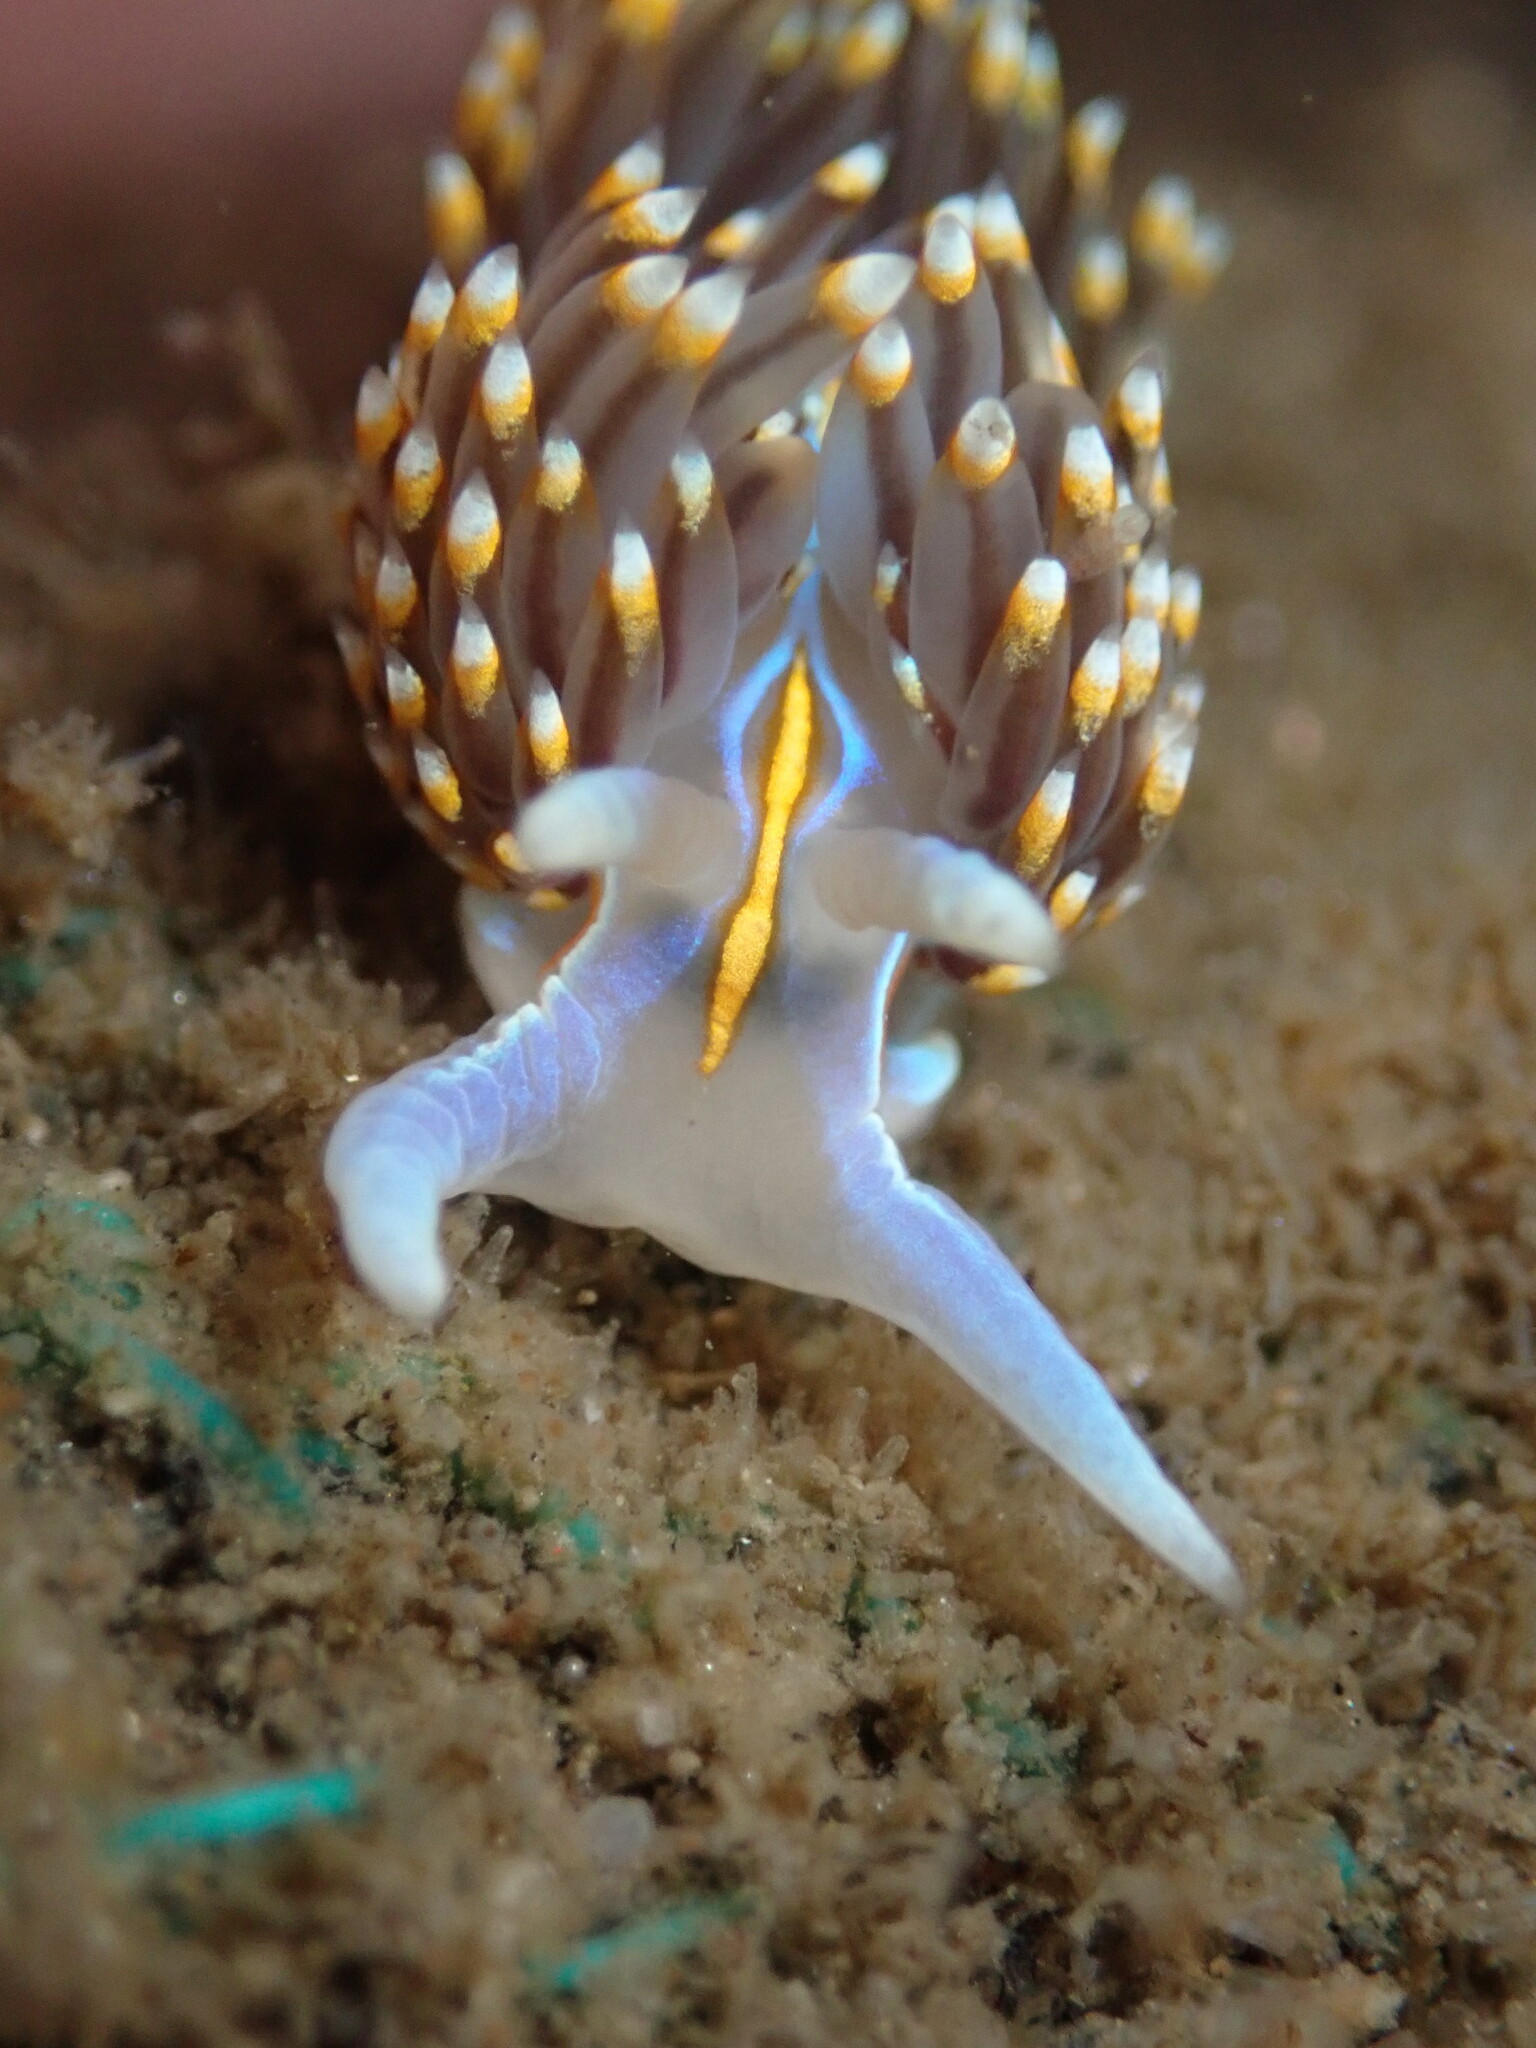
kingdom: Animalia
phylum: Mollusca
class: Gastropoda
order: Nudibranchia
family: Myrrhinidae
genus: Hermissenda
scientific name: Hermissenda opalescens
